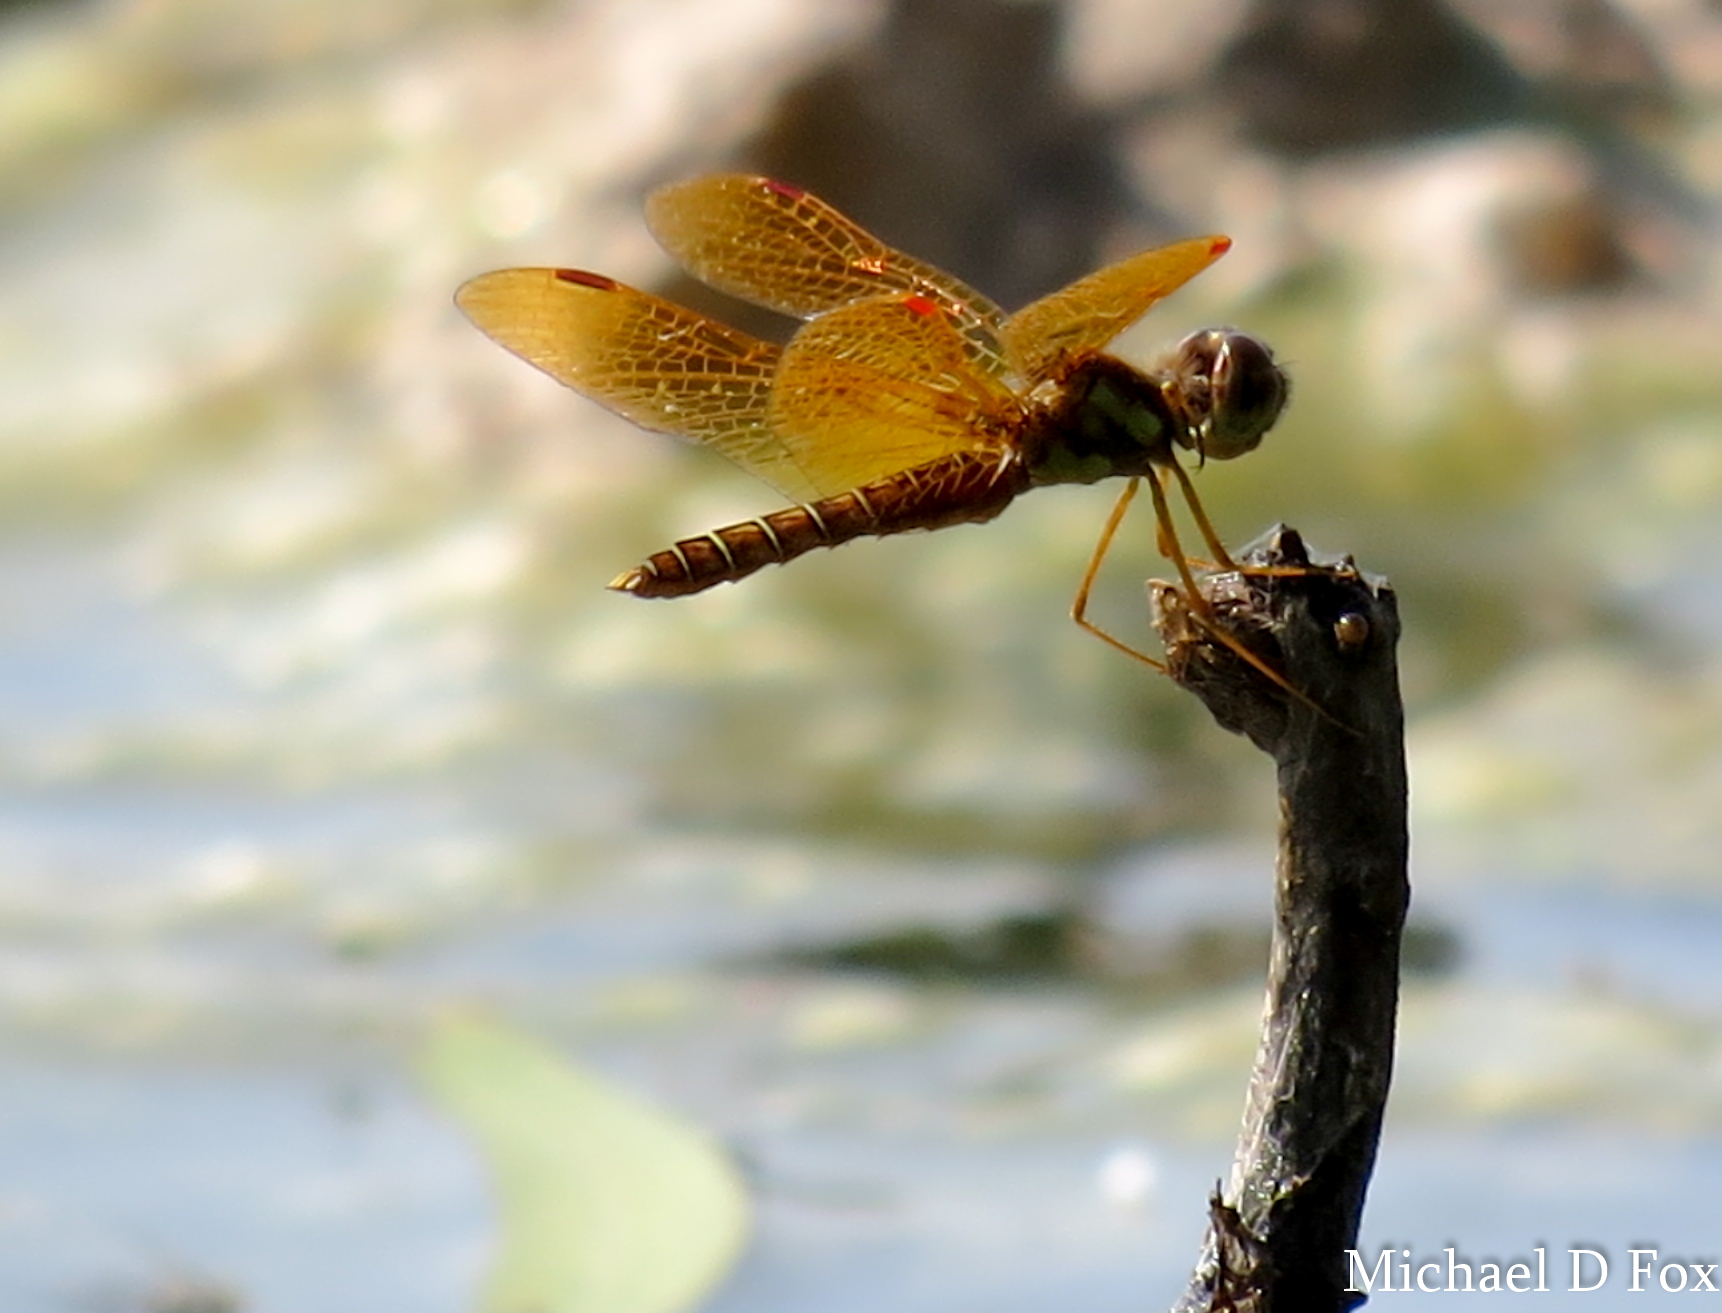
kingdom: Animalia
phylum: Arthropoda
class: Insecta
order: Odonata
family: Libellulidae
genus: Perithemis
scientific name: Perithemis tenera
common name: Eastern amberwing
